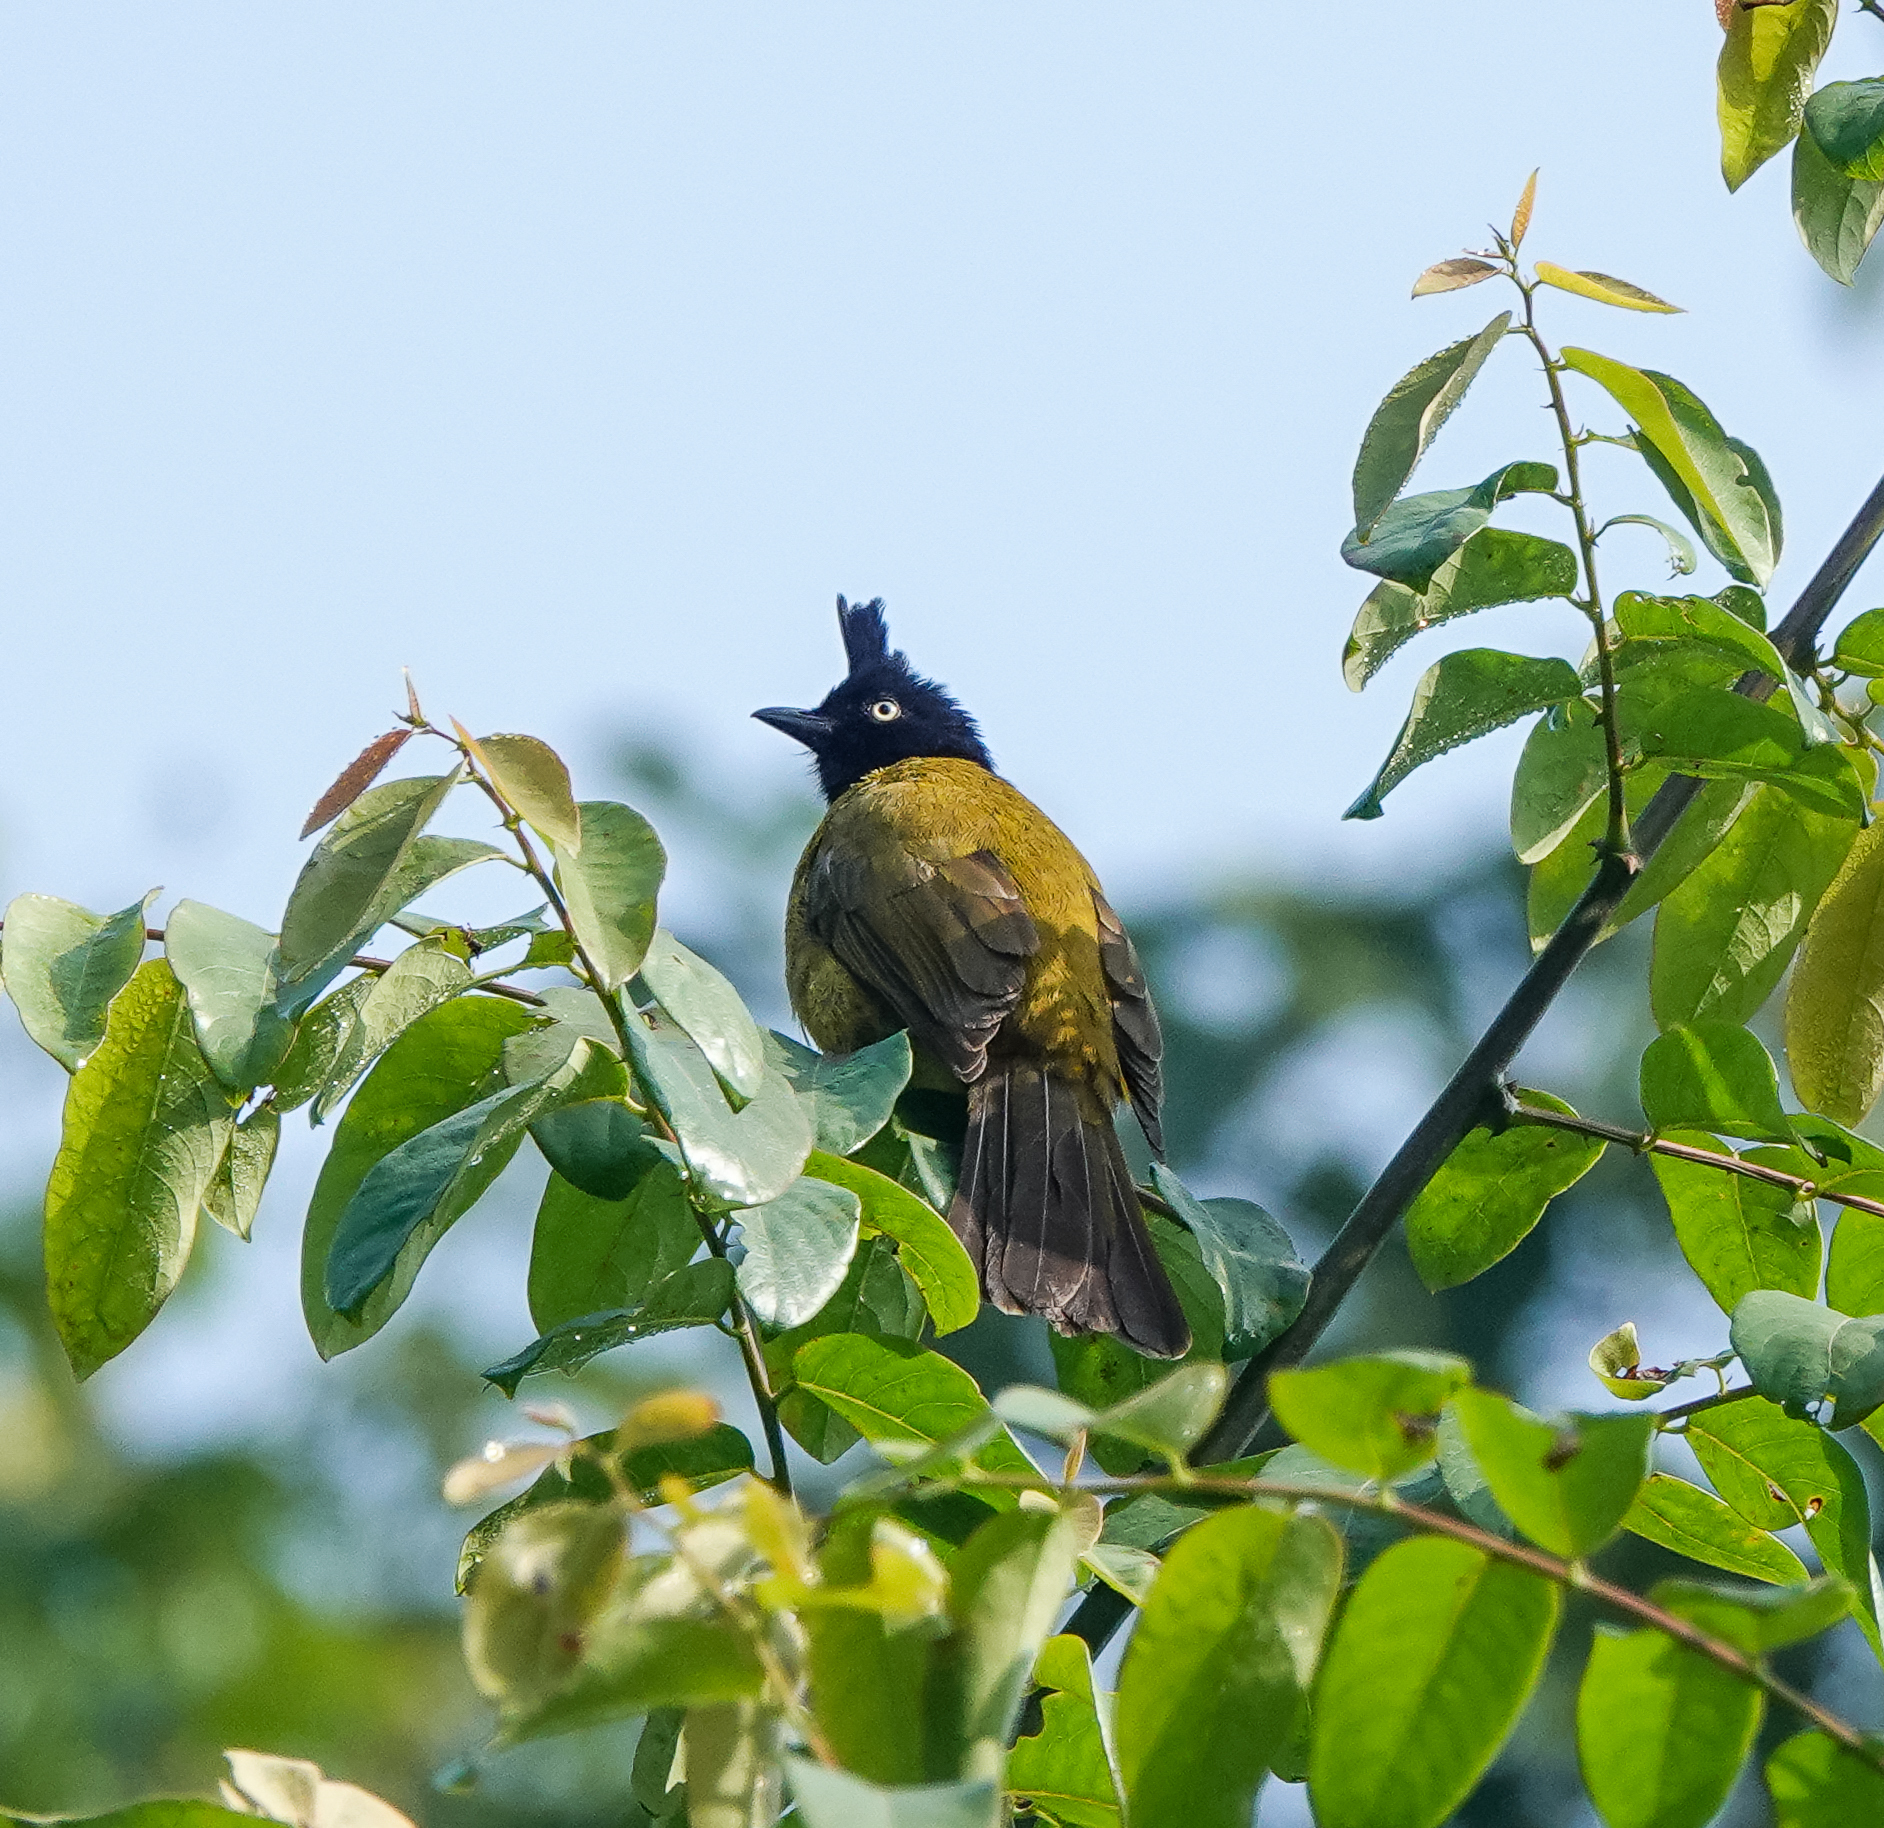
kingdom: Animalia
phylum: Chordata
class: Aves
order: Passeriformes
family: Pycnonotidae
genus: Pycnonotus
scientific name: Pycnonotus flaviventris
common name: Black-crested bulbul
